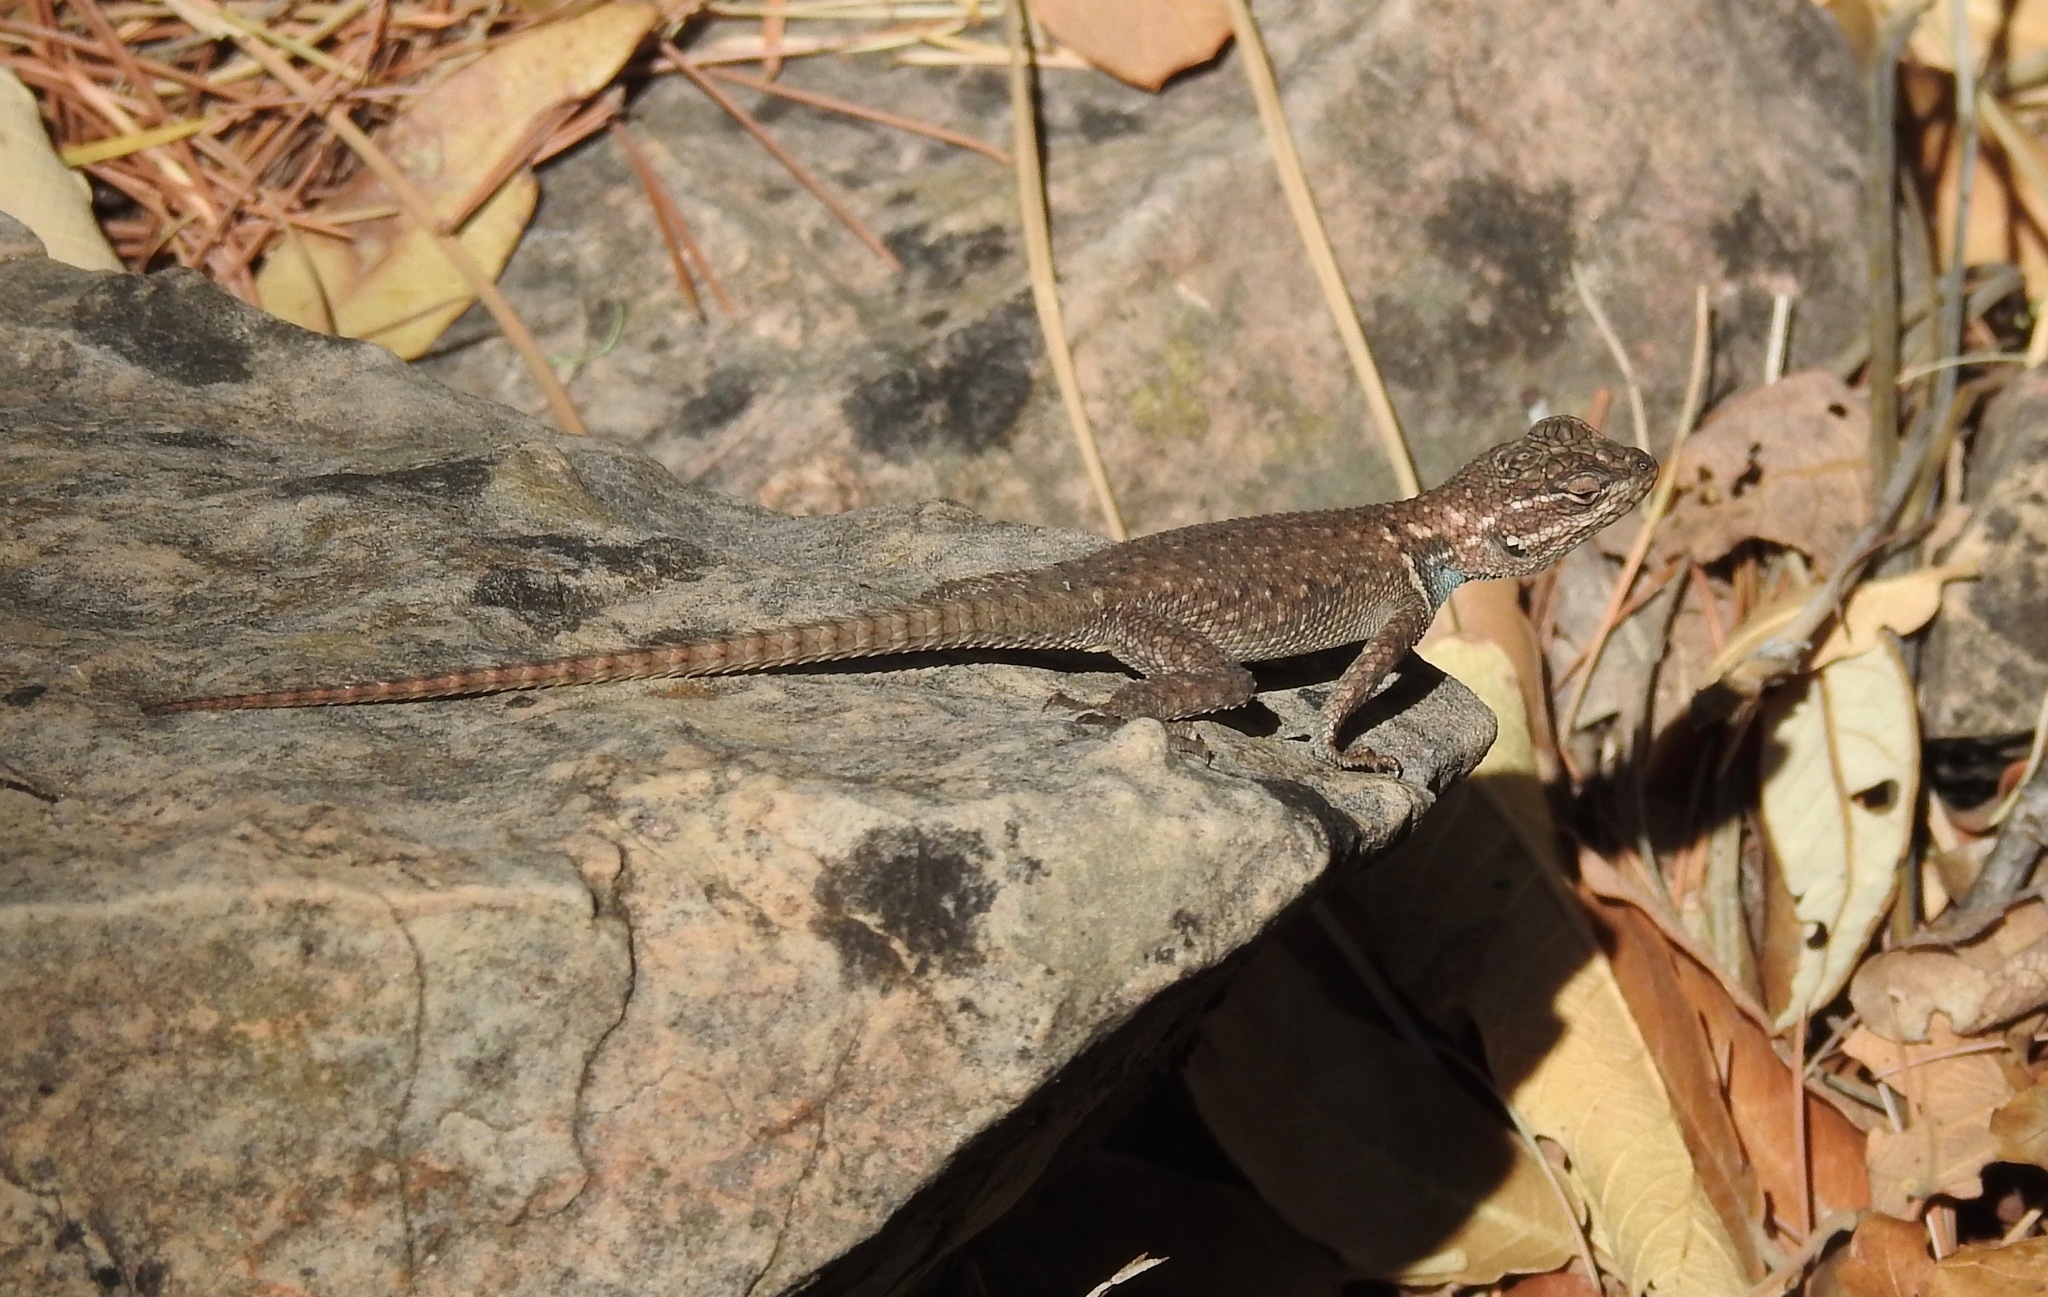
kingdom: Animalia
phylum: Chordata
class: Squamata
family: Phrynosomatidae
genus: Sceloporus
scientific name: Sceloporus jarrovii
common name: Yarrow's spiny lizard
